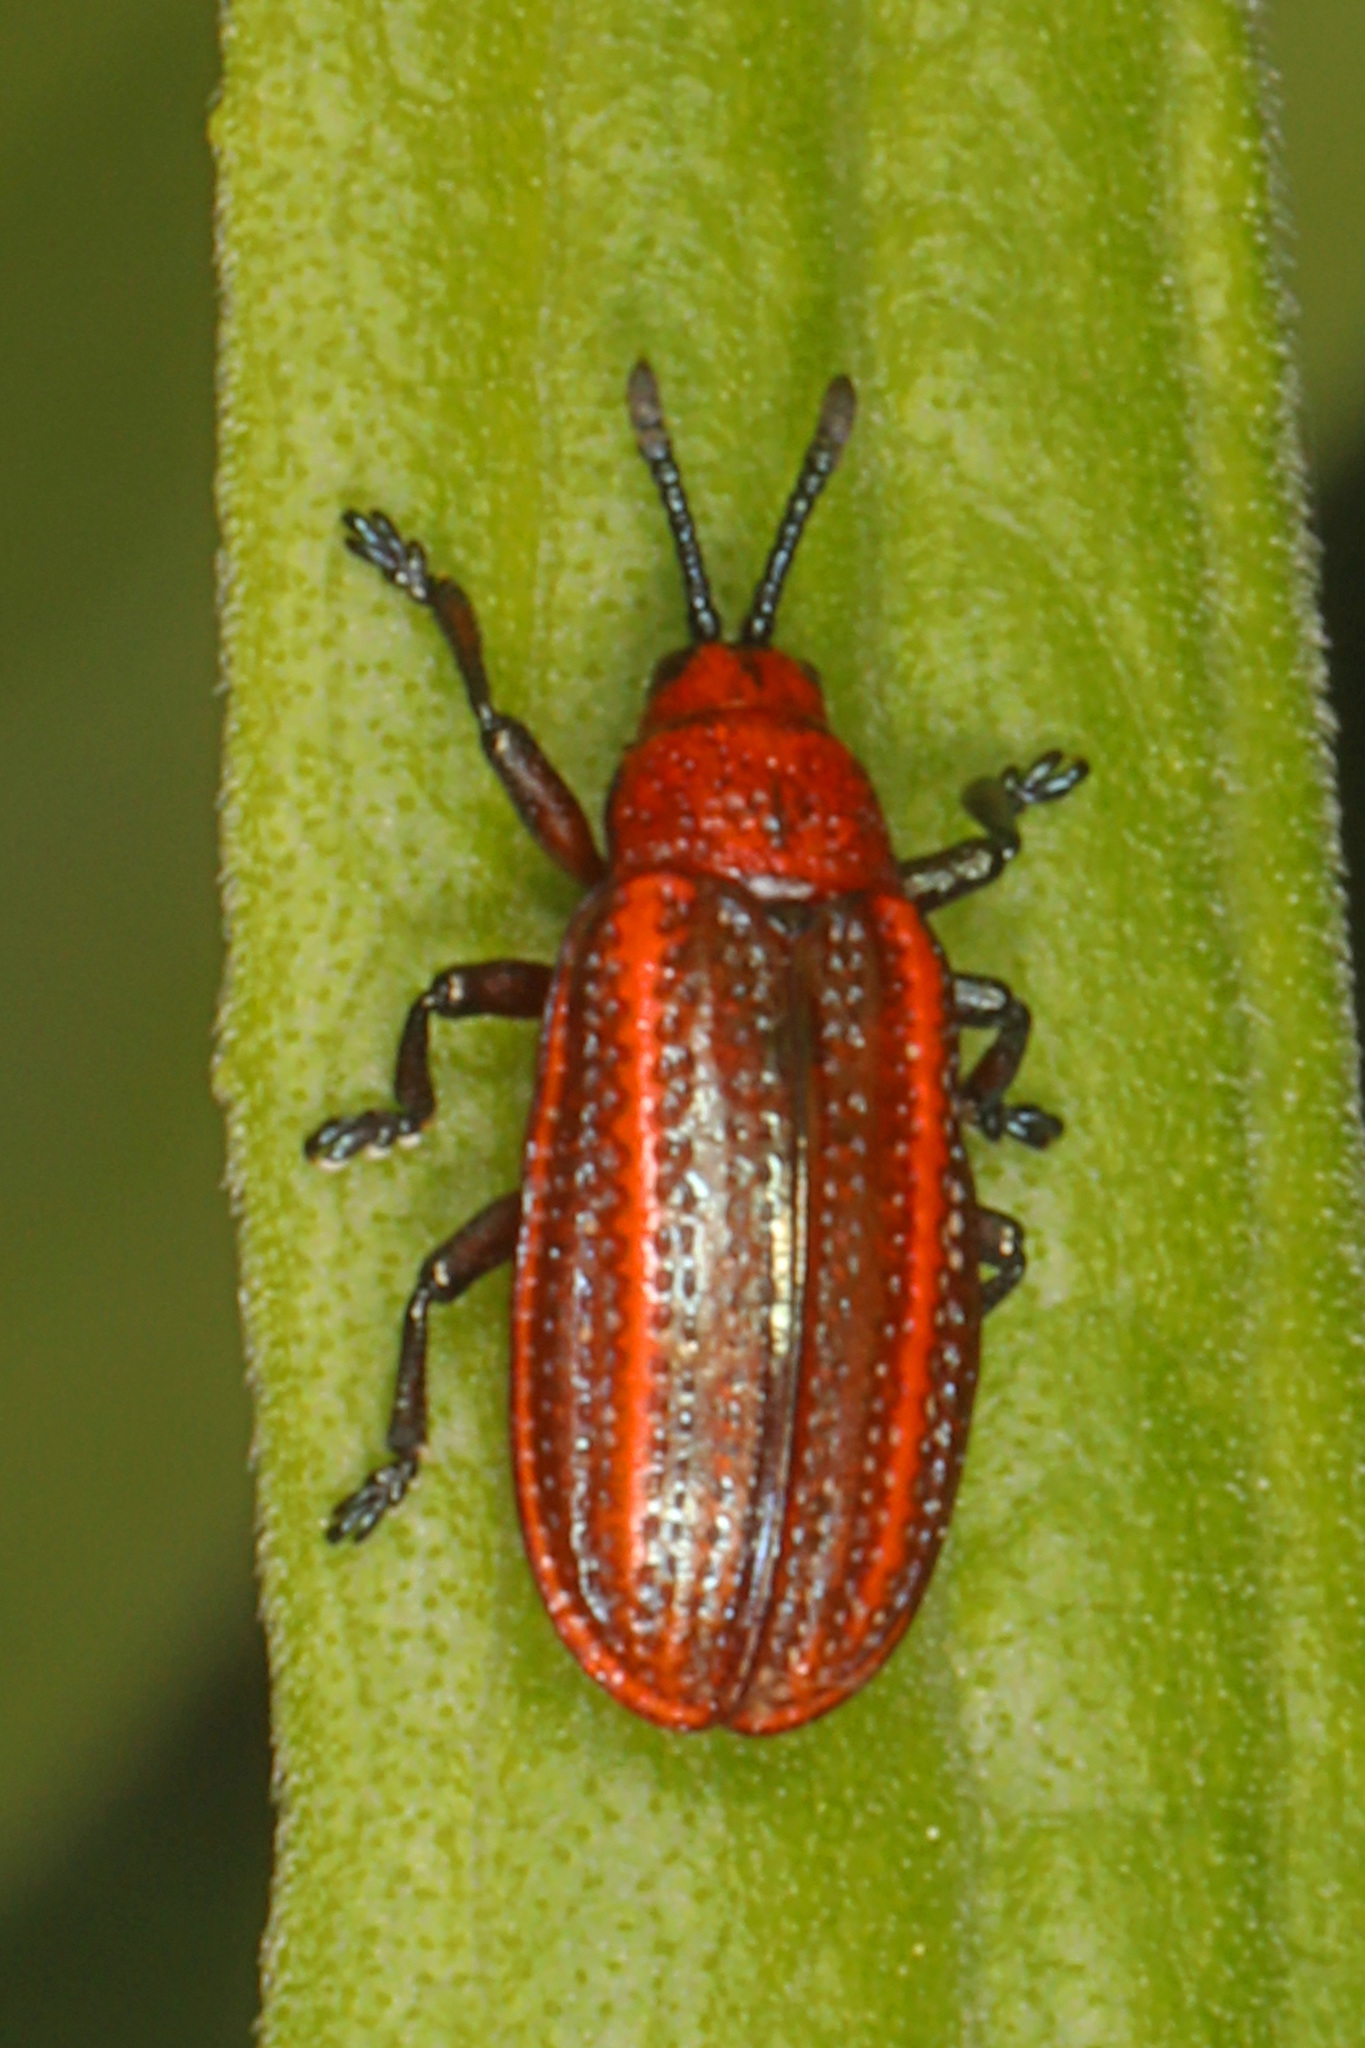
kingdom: Animalia
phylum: Arthropoda
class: Insecta
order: Coleoptera
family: Chrysomelidae
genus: Microrhopala
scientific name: Microrhopala vittata
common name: Goldenrod leaf miner beetle
